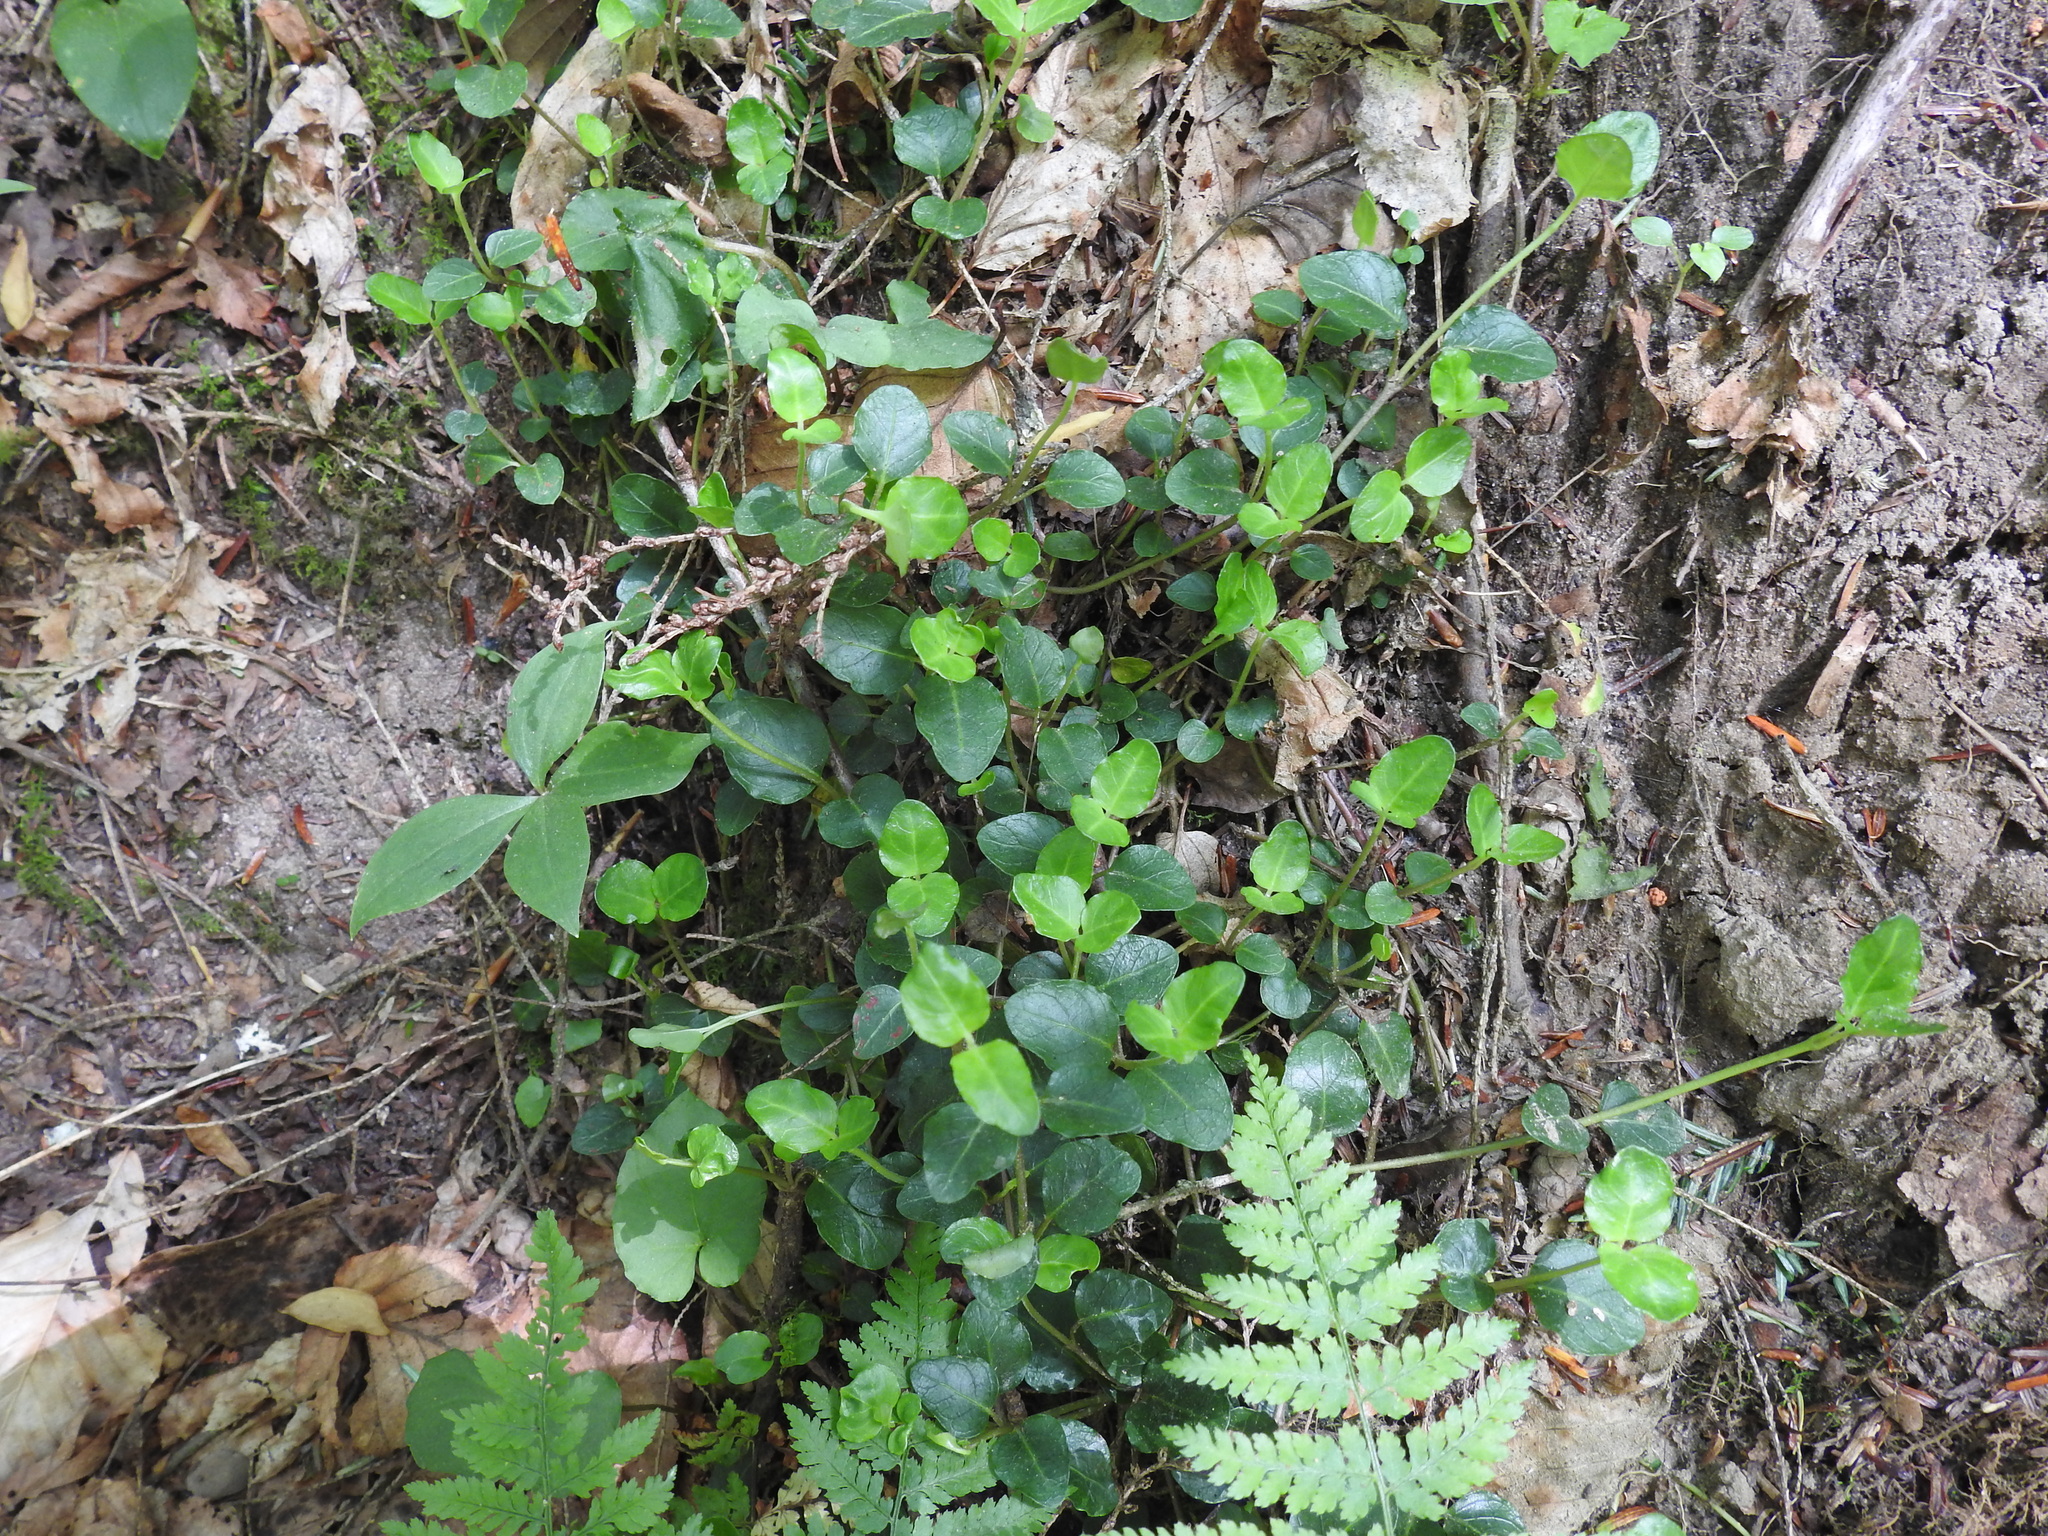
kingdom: Plantae
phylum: Tracheophyta
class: Magnoliopsida
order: Gentianales
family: Rubiaceae
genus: Mitchella
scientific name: Mitchella repens
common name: Partridge-berry
